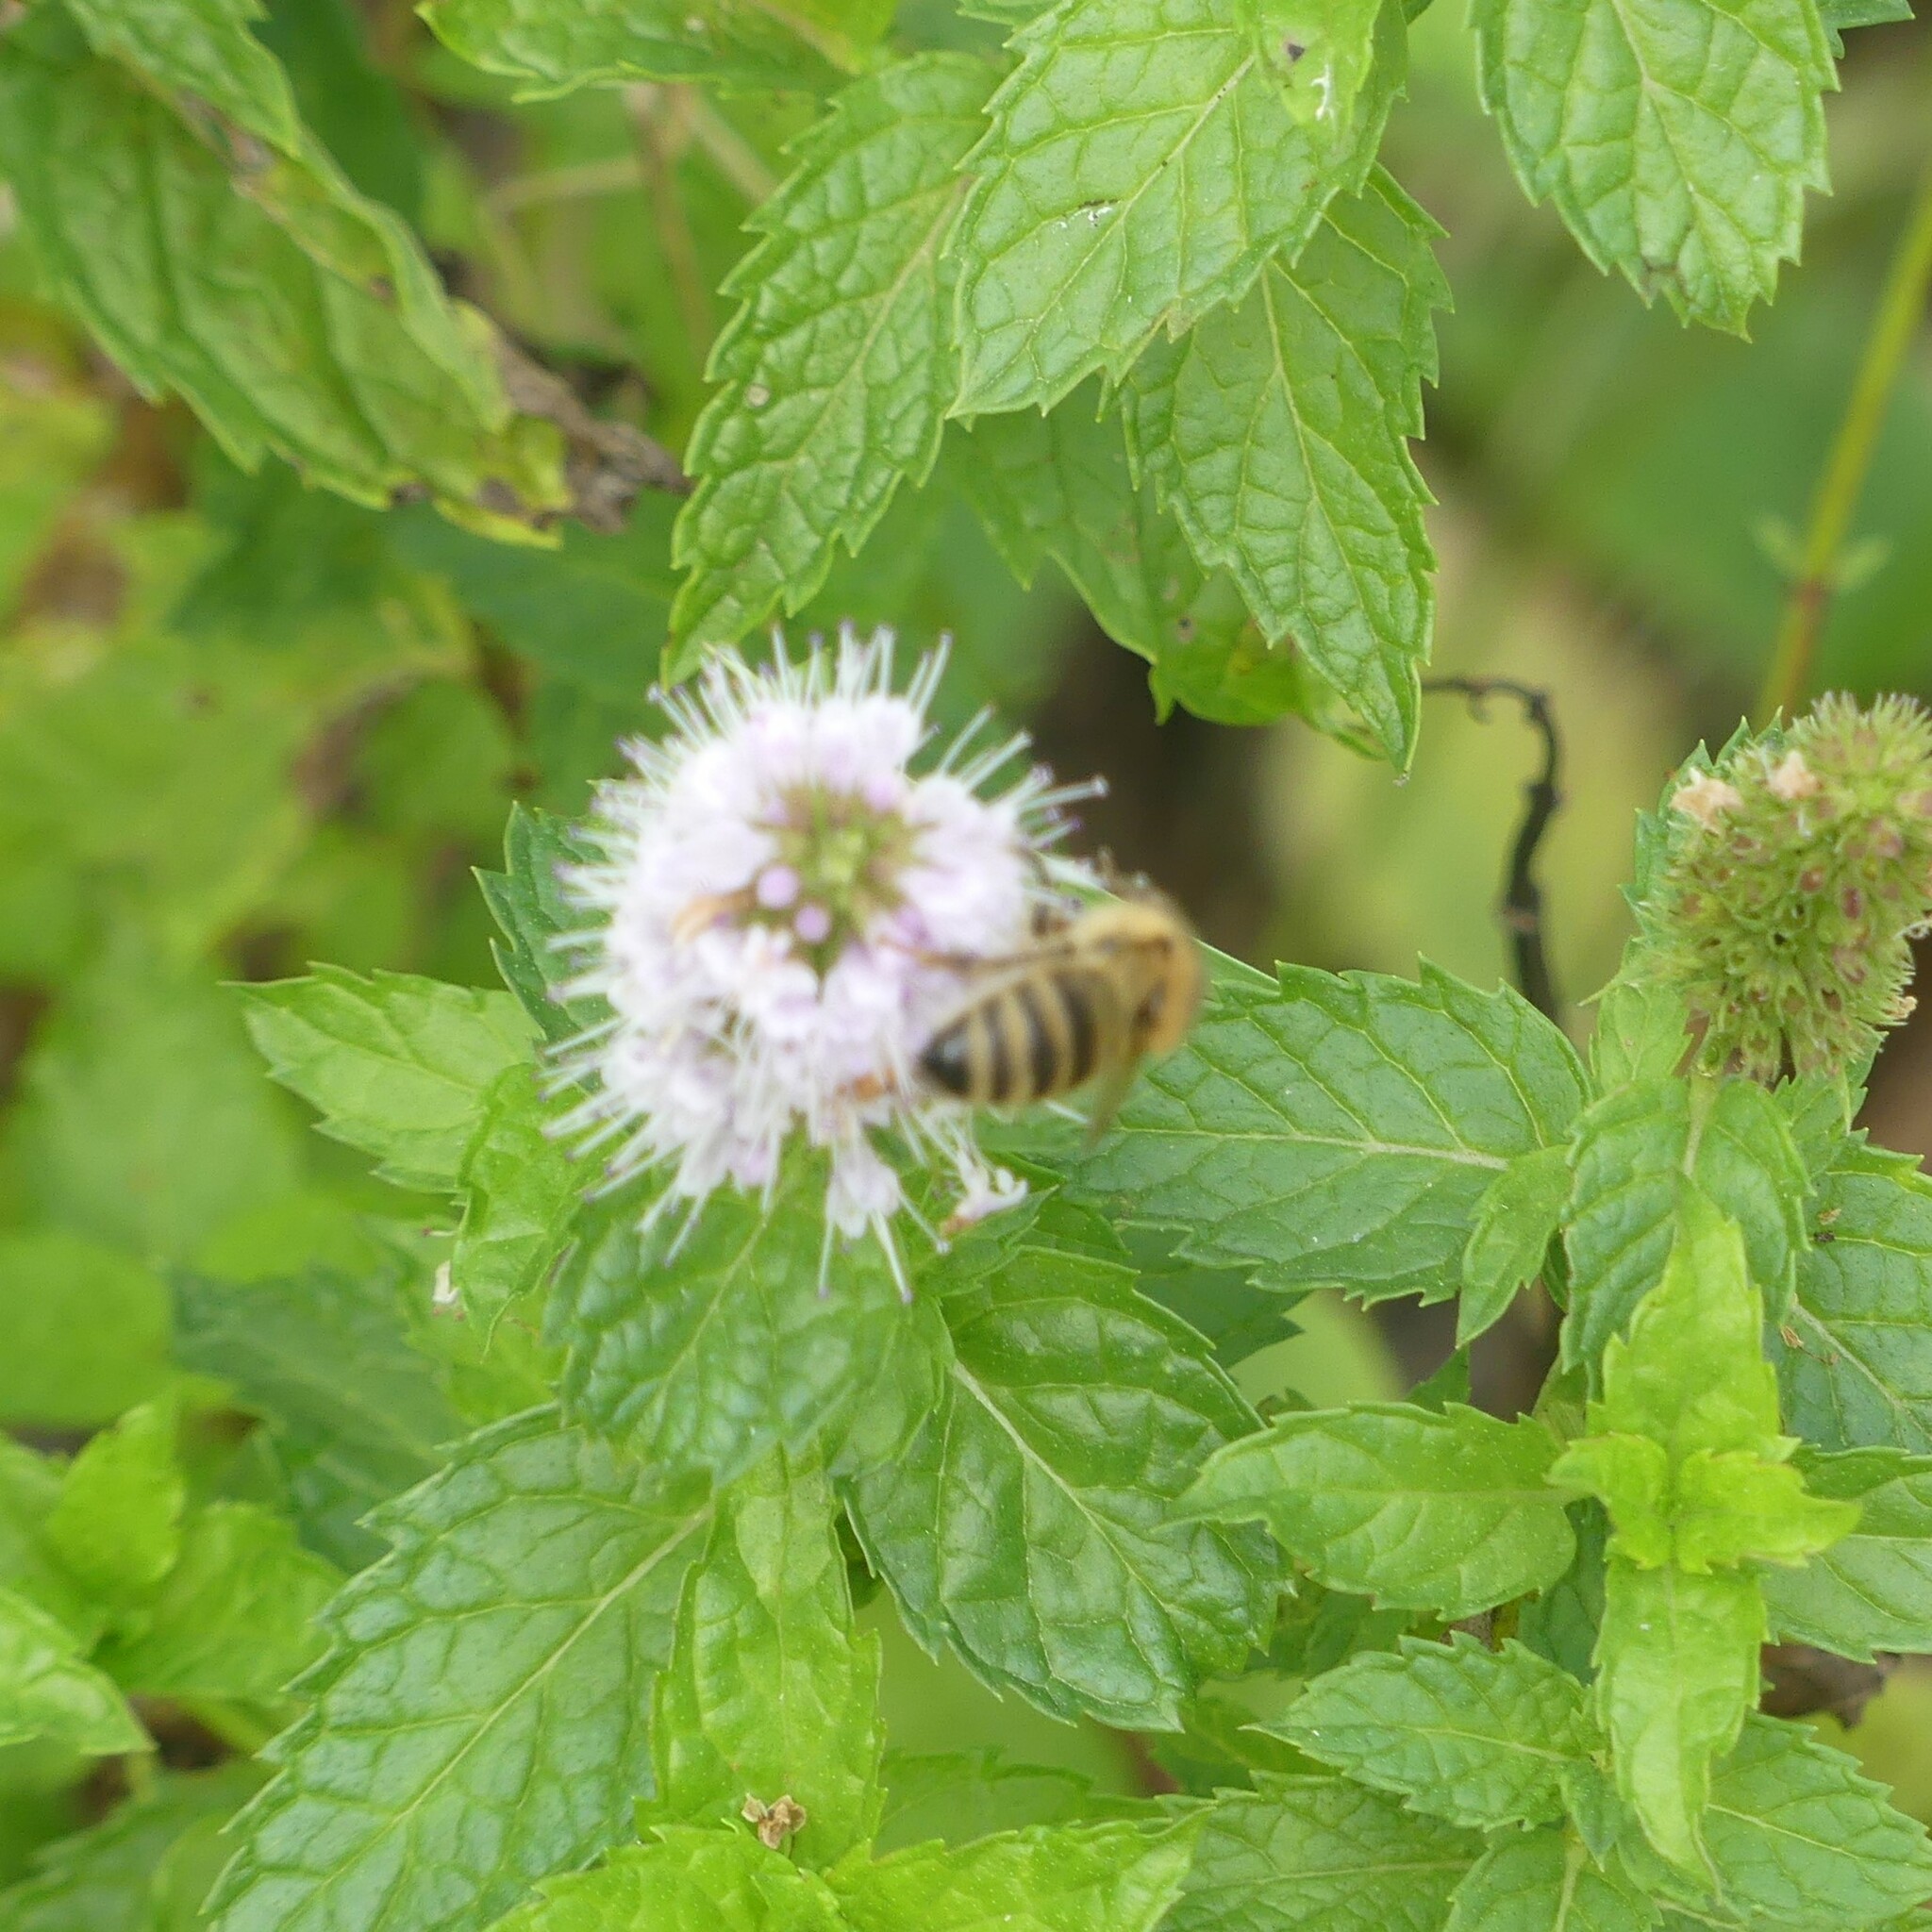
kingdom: Animalia
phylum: Arthropoda
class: Insecta
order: Hymenoptera
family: Apidae
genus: Apis
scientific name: Apis mellifera
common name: Honey bee
